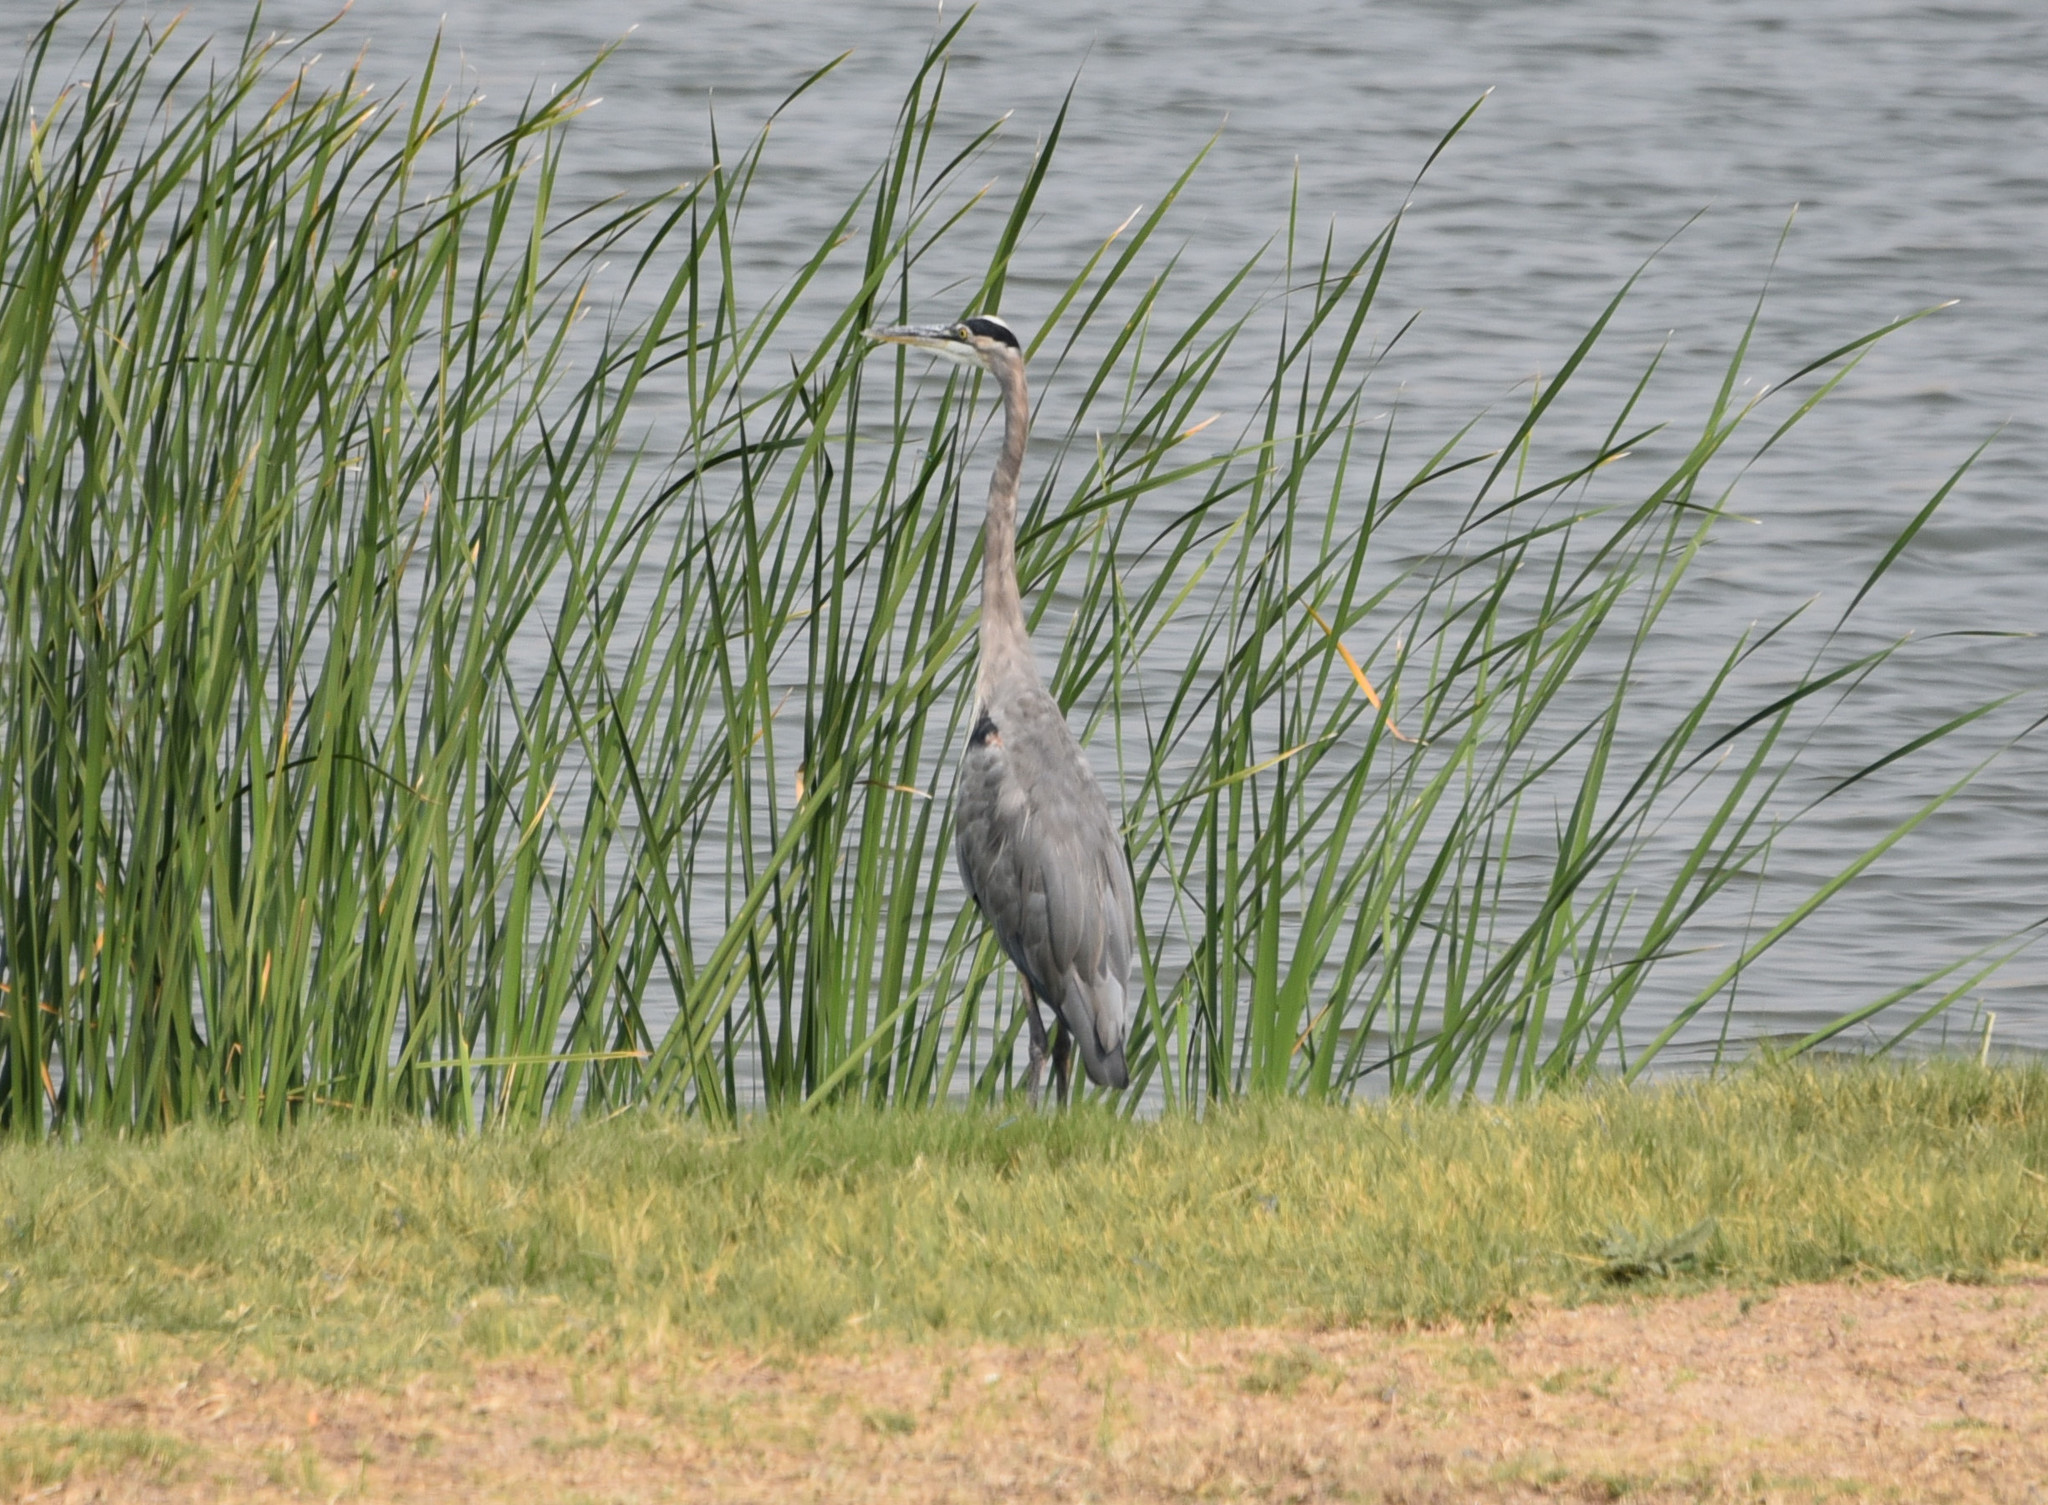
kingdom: Animalia
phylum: Chordata
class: Aves
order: Pelecaniformes
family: Ardeidae
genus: Ardea
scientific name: Ardea herodias
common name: Great blue heron
